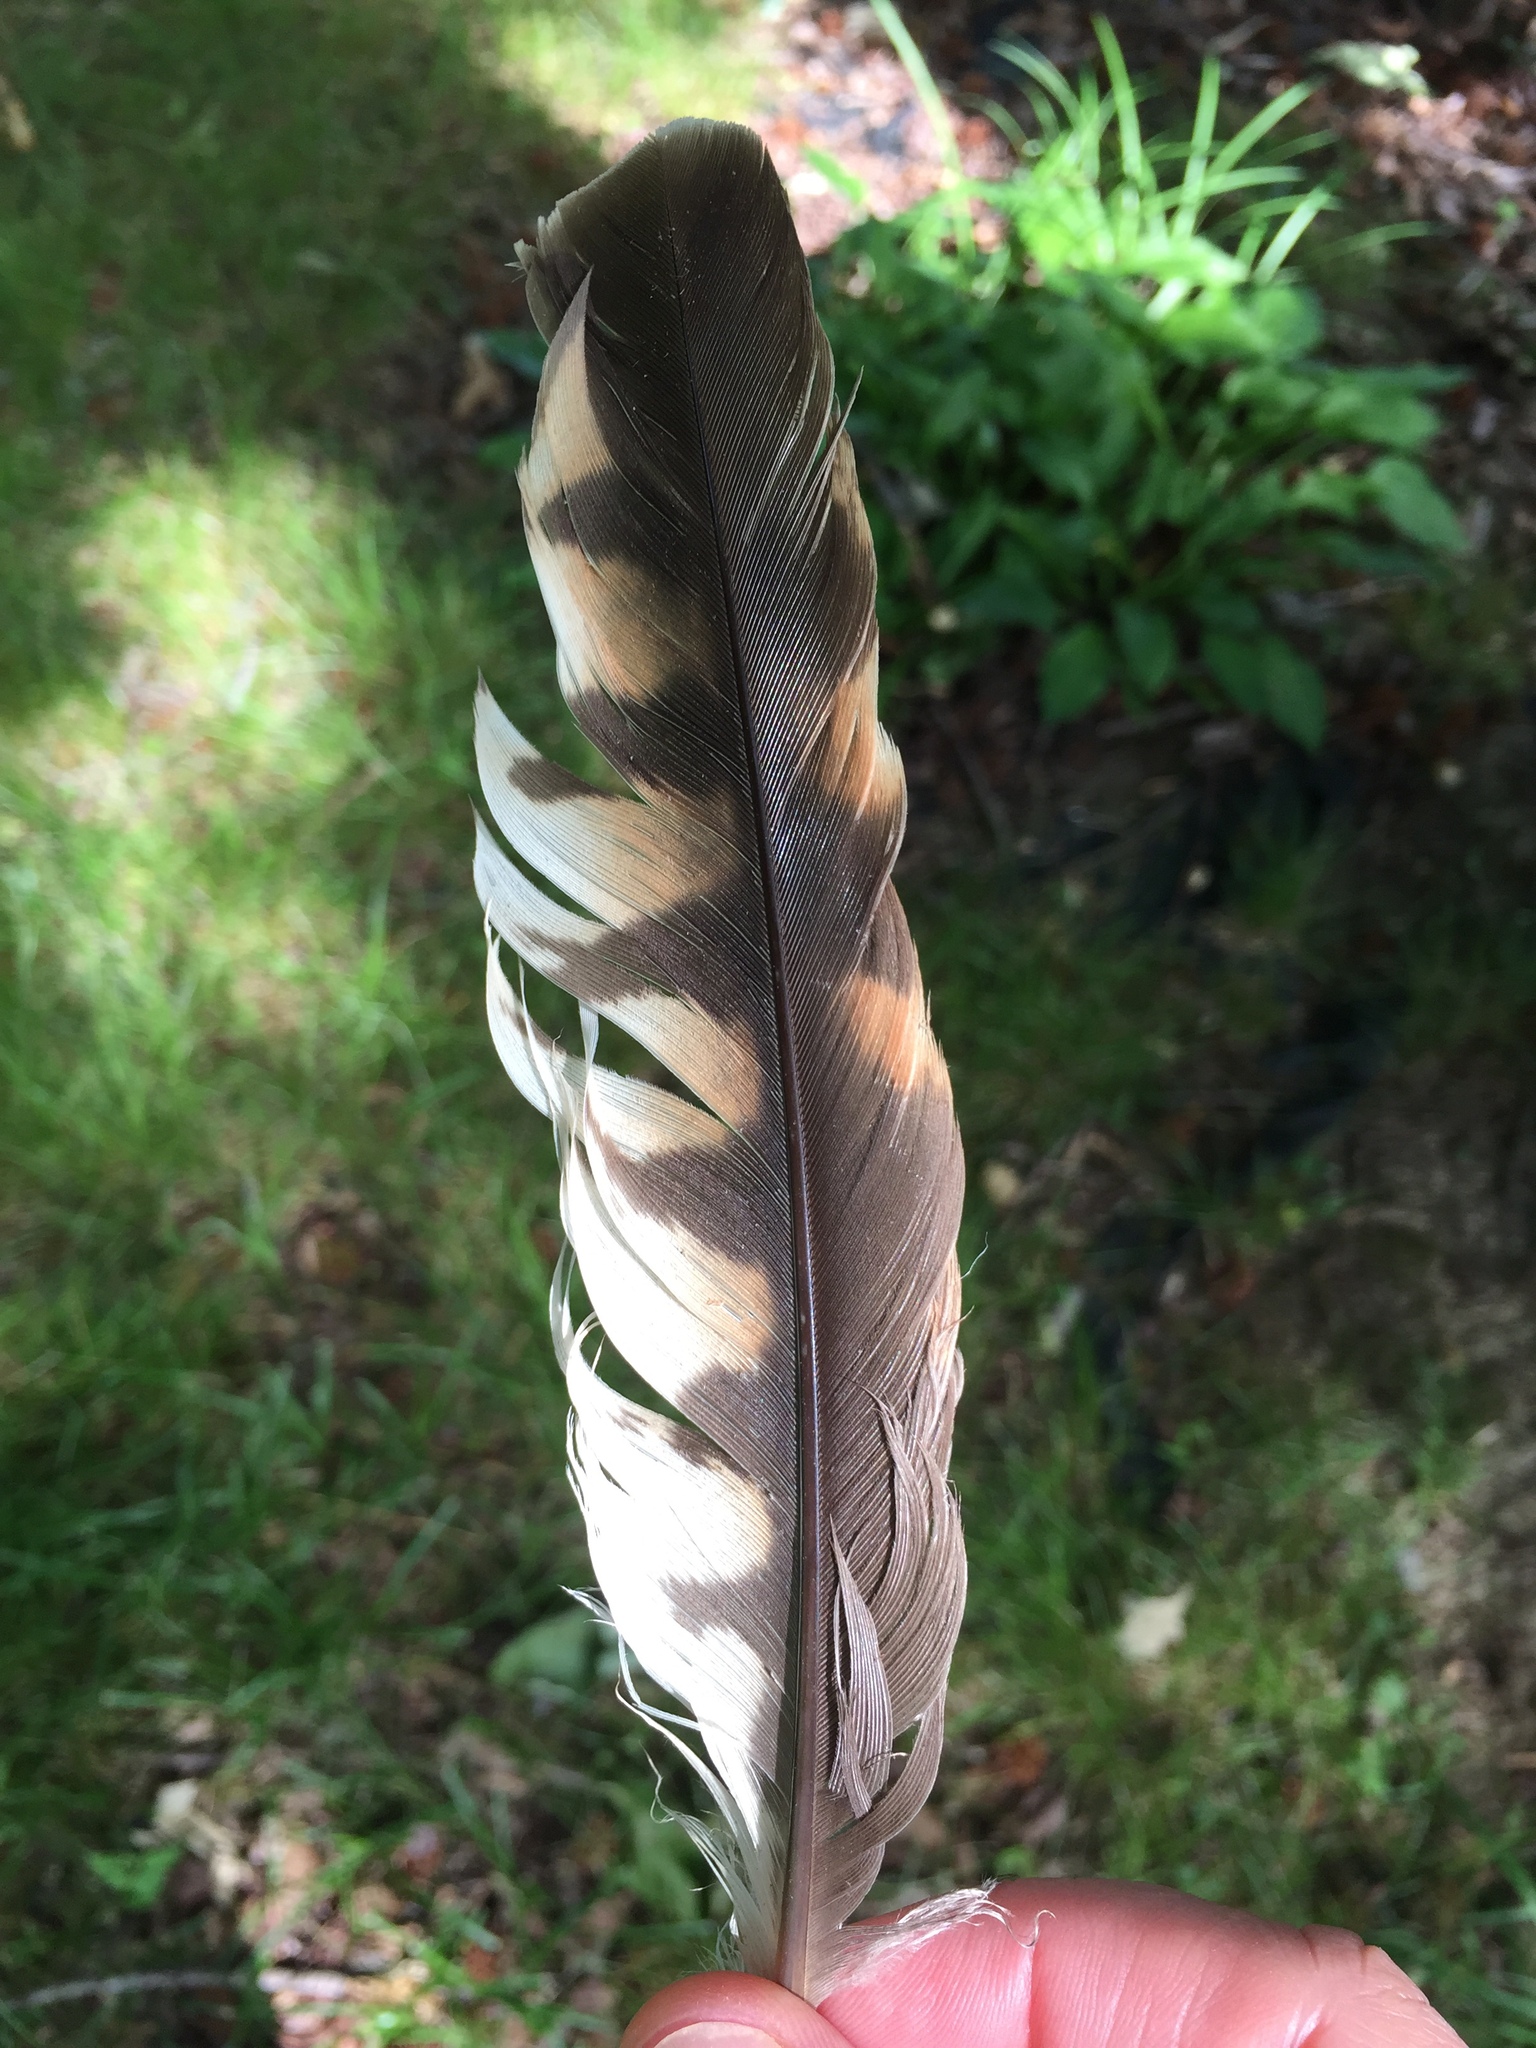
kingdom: Animalia
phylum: Chordata
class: Aves
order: Accipitriformes
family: Accipitridae
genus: Buteo
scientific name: Buteo lineatus
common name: Red-shouldered hawk
